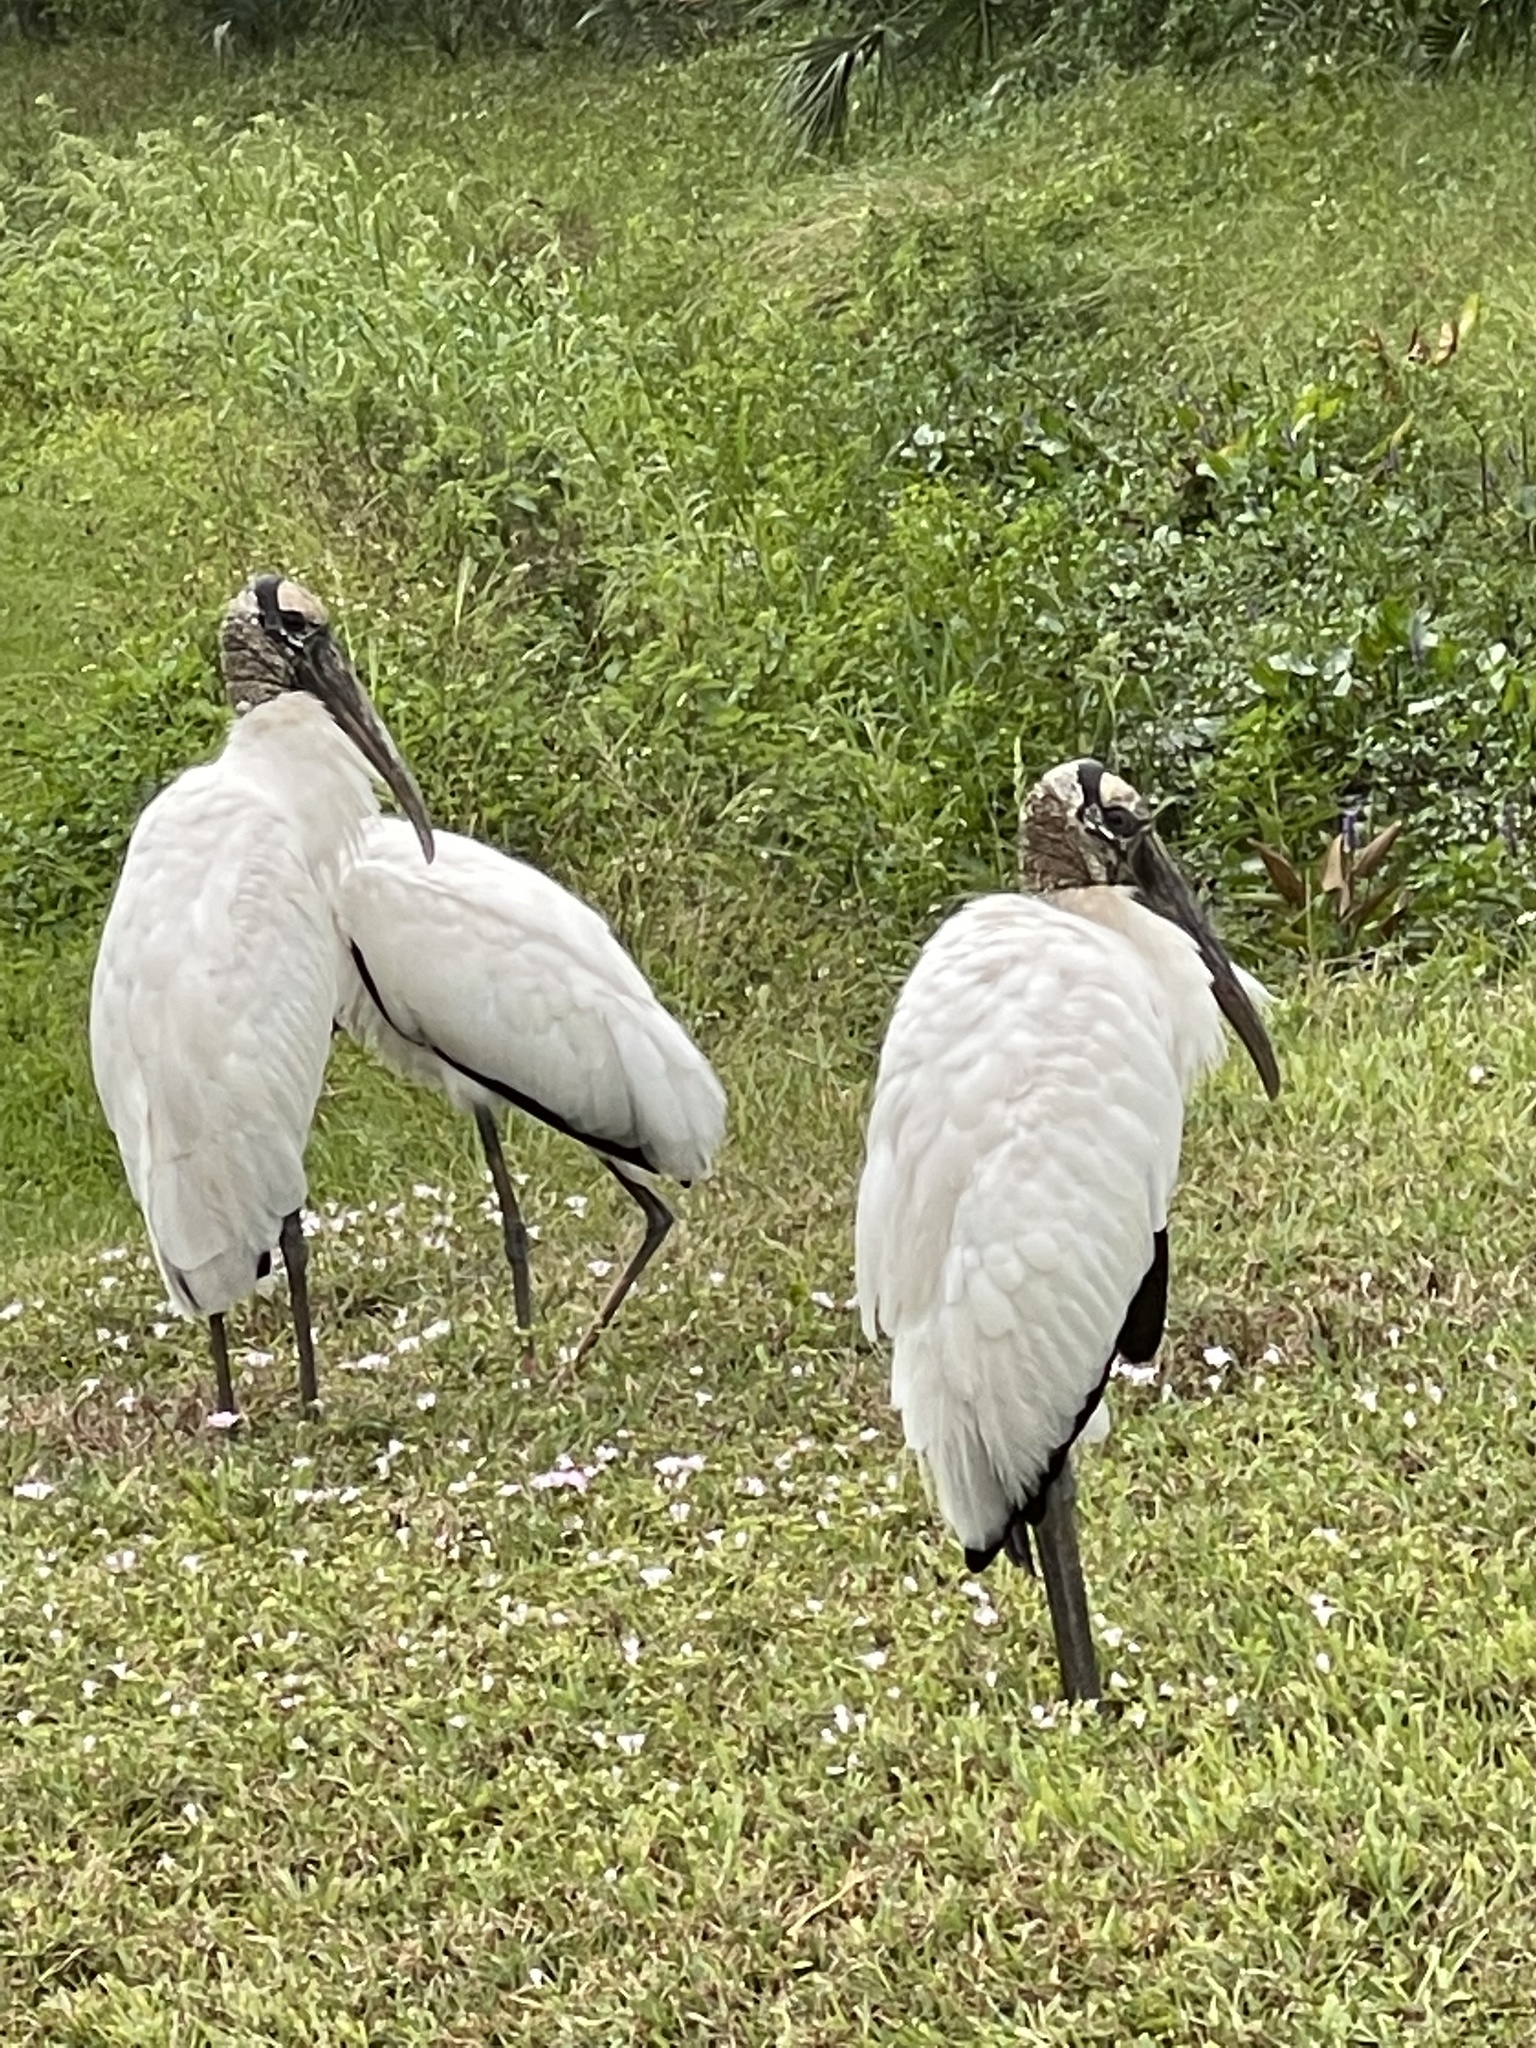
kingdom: Animalia
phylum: Chordata
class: Aves
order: Ciconiiformes
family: Ciconiidae
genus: Mycteria
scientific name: Mycteria americana
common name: Wood stork
